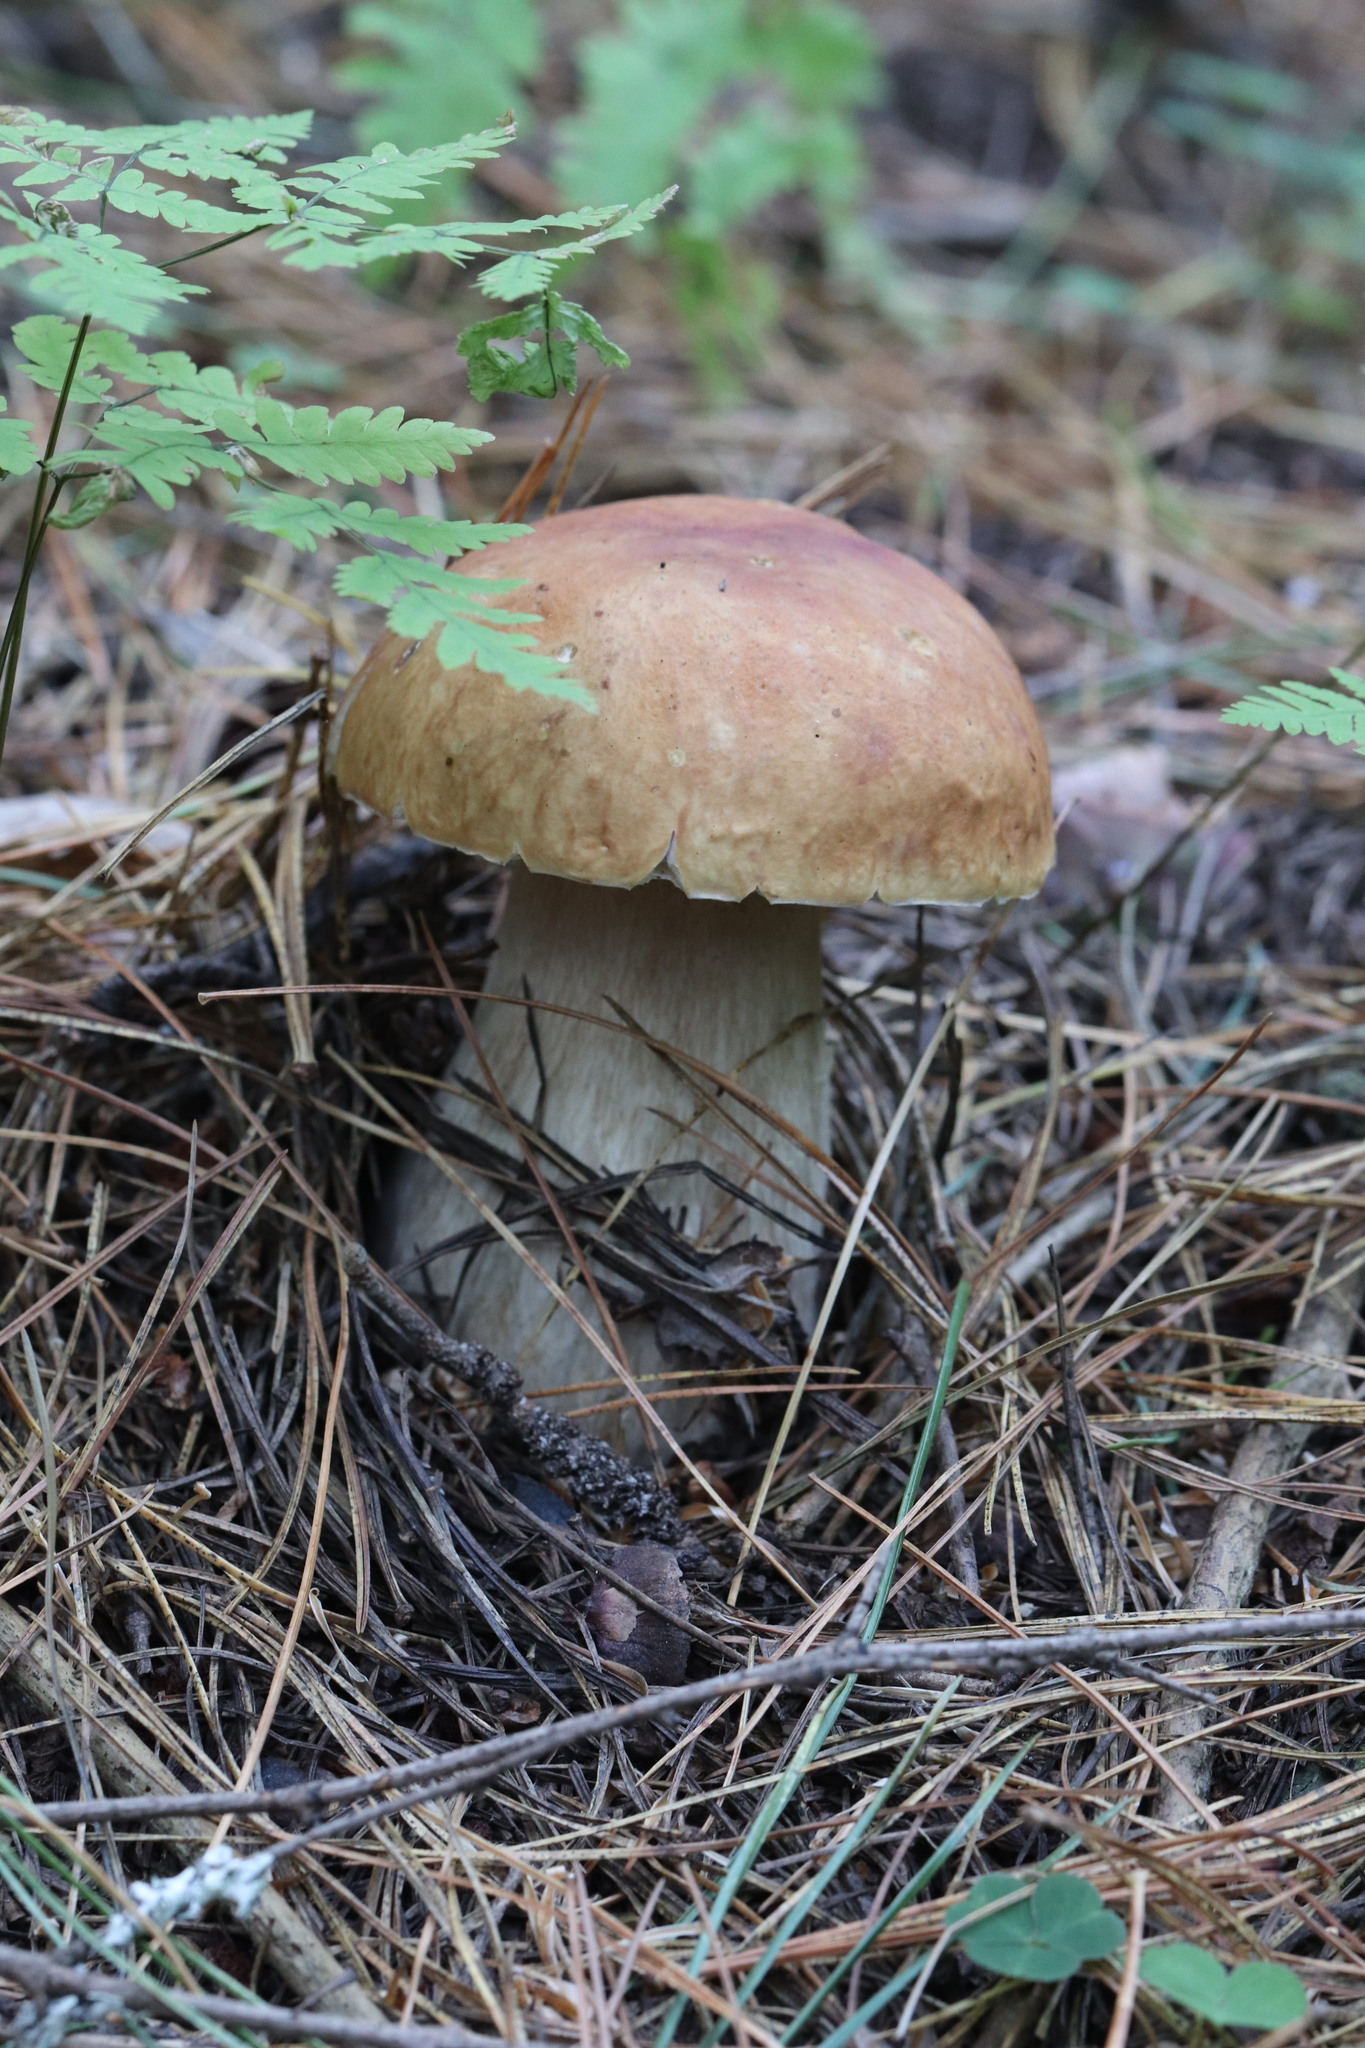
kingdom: Fungi
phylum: Basidiomycota
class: Agaricomycetes
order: Boletales
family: Boletaceae
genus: Boletus
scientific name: Boletus edulis
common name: Cep
